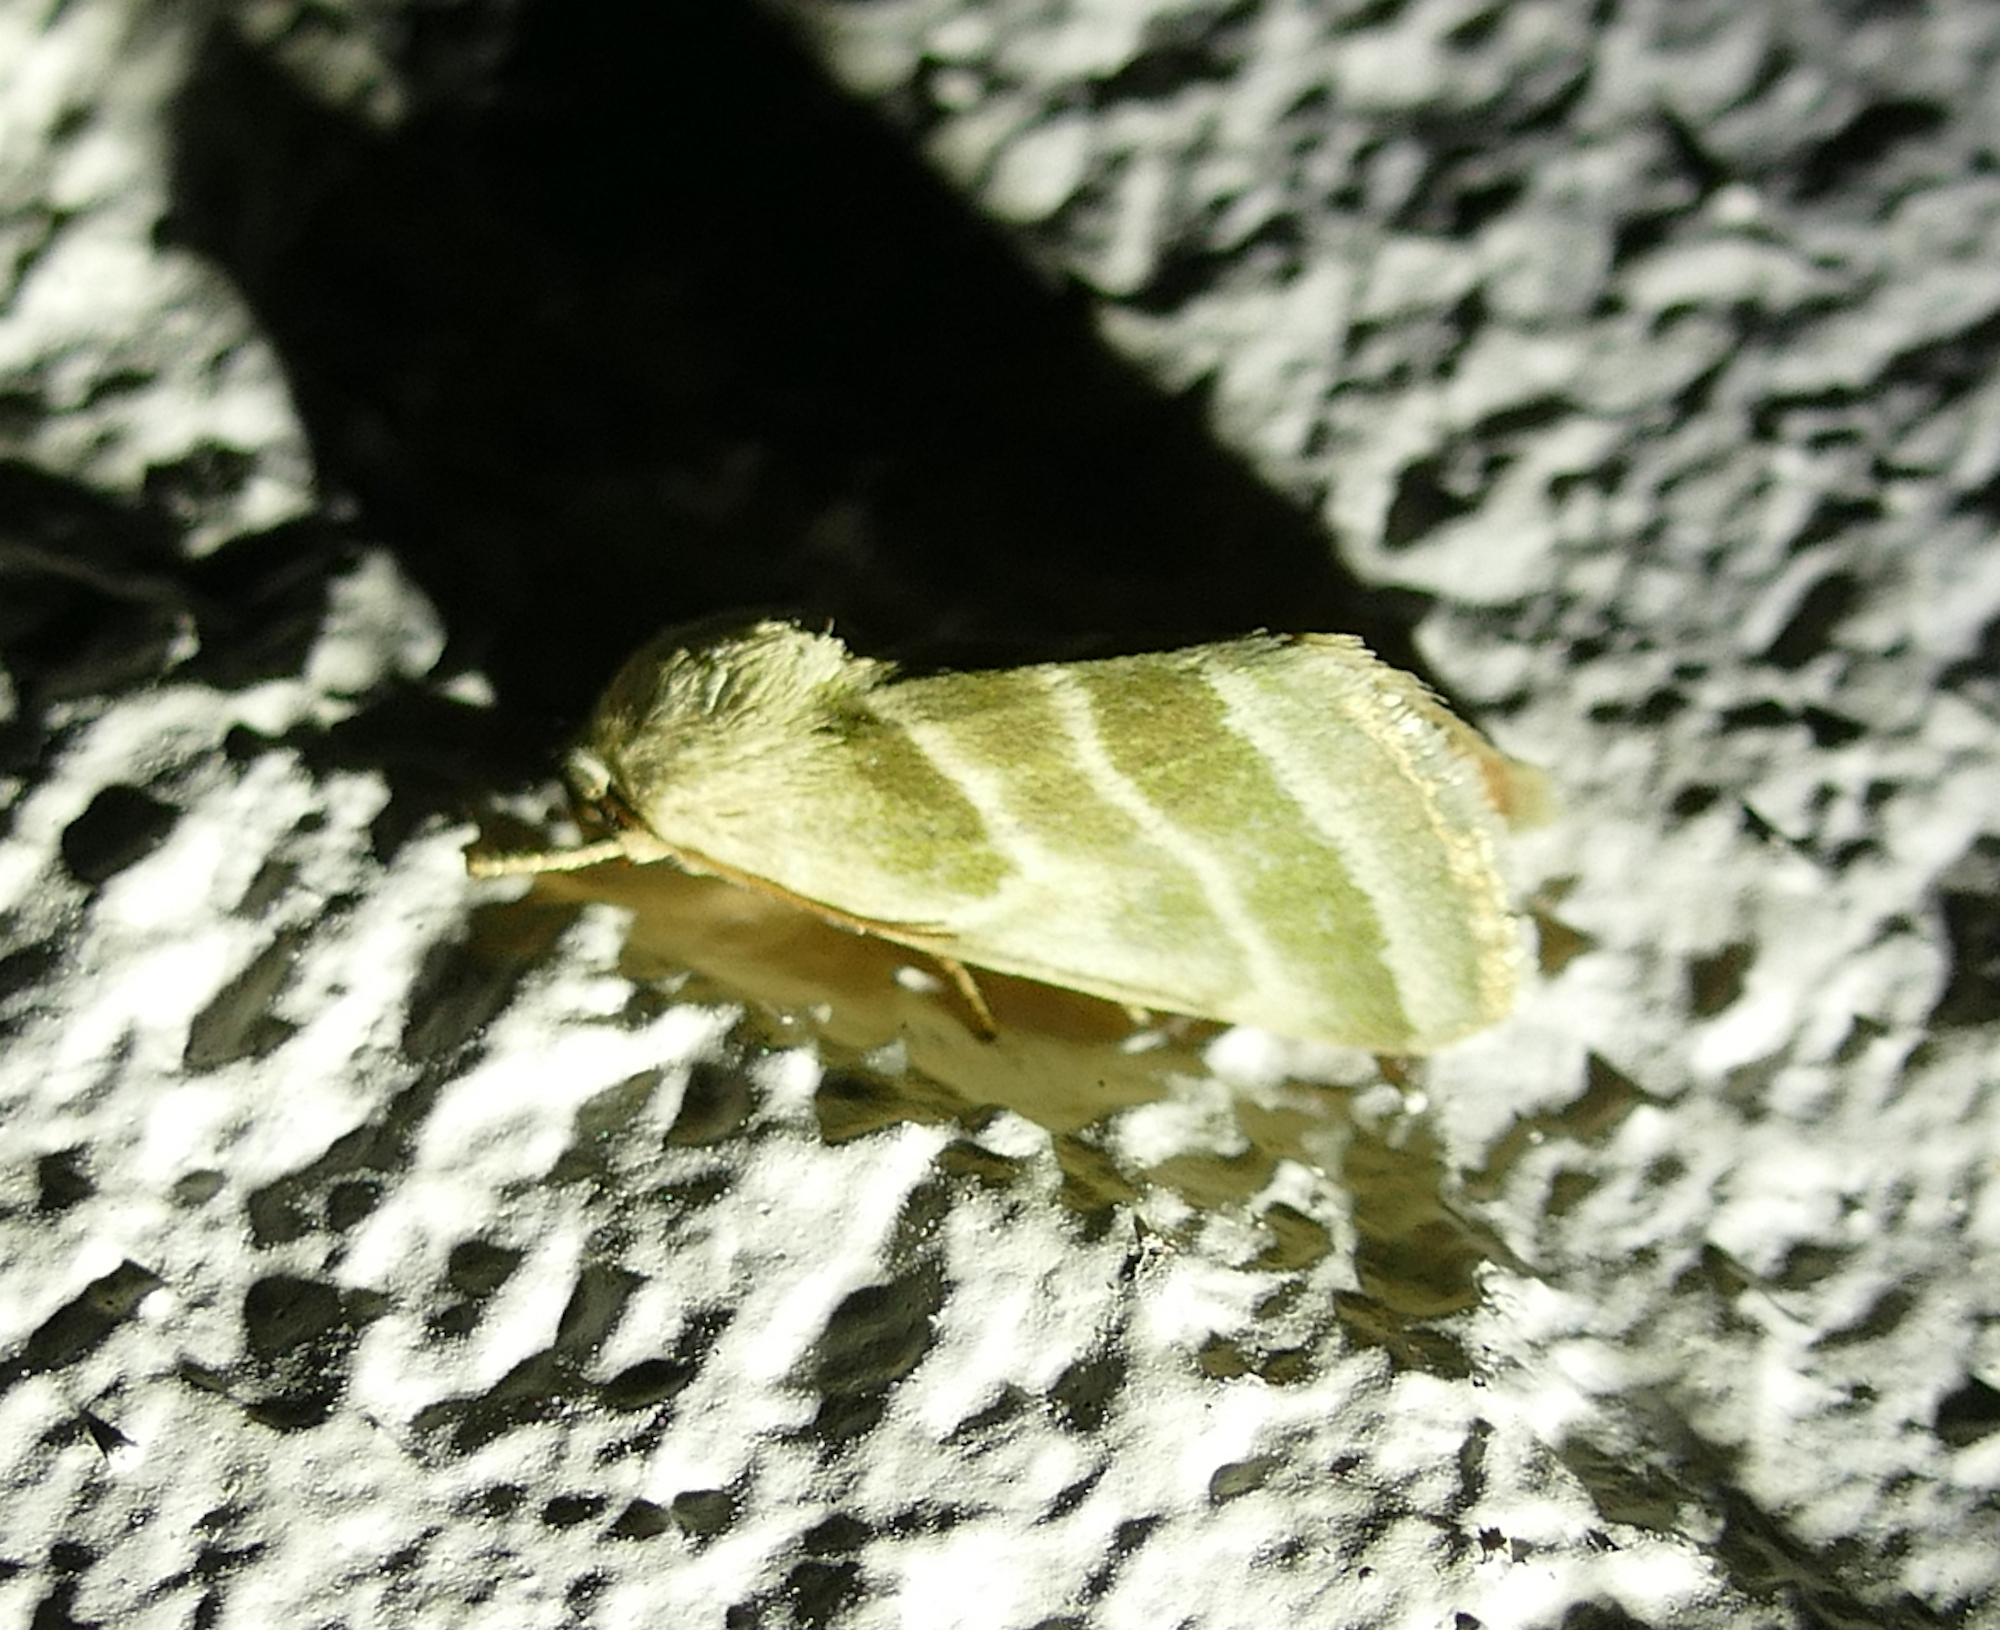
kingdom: Animalia
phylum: Arthropoda
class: Insecta
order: Lepidoptera
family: Noctuidae
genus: Schinia
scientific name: Schinia trifascia
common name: Three-lined flower moth
